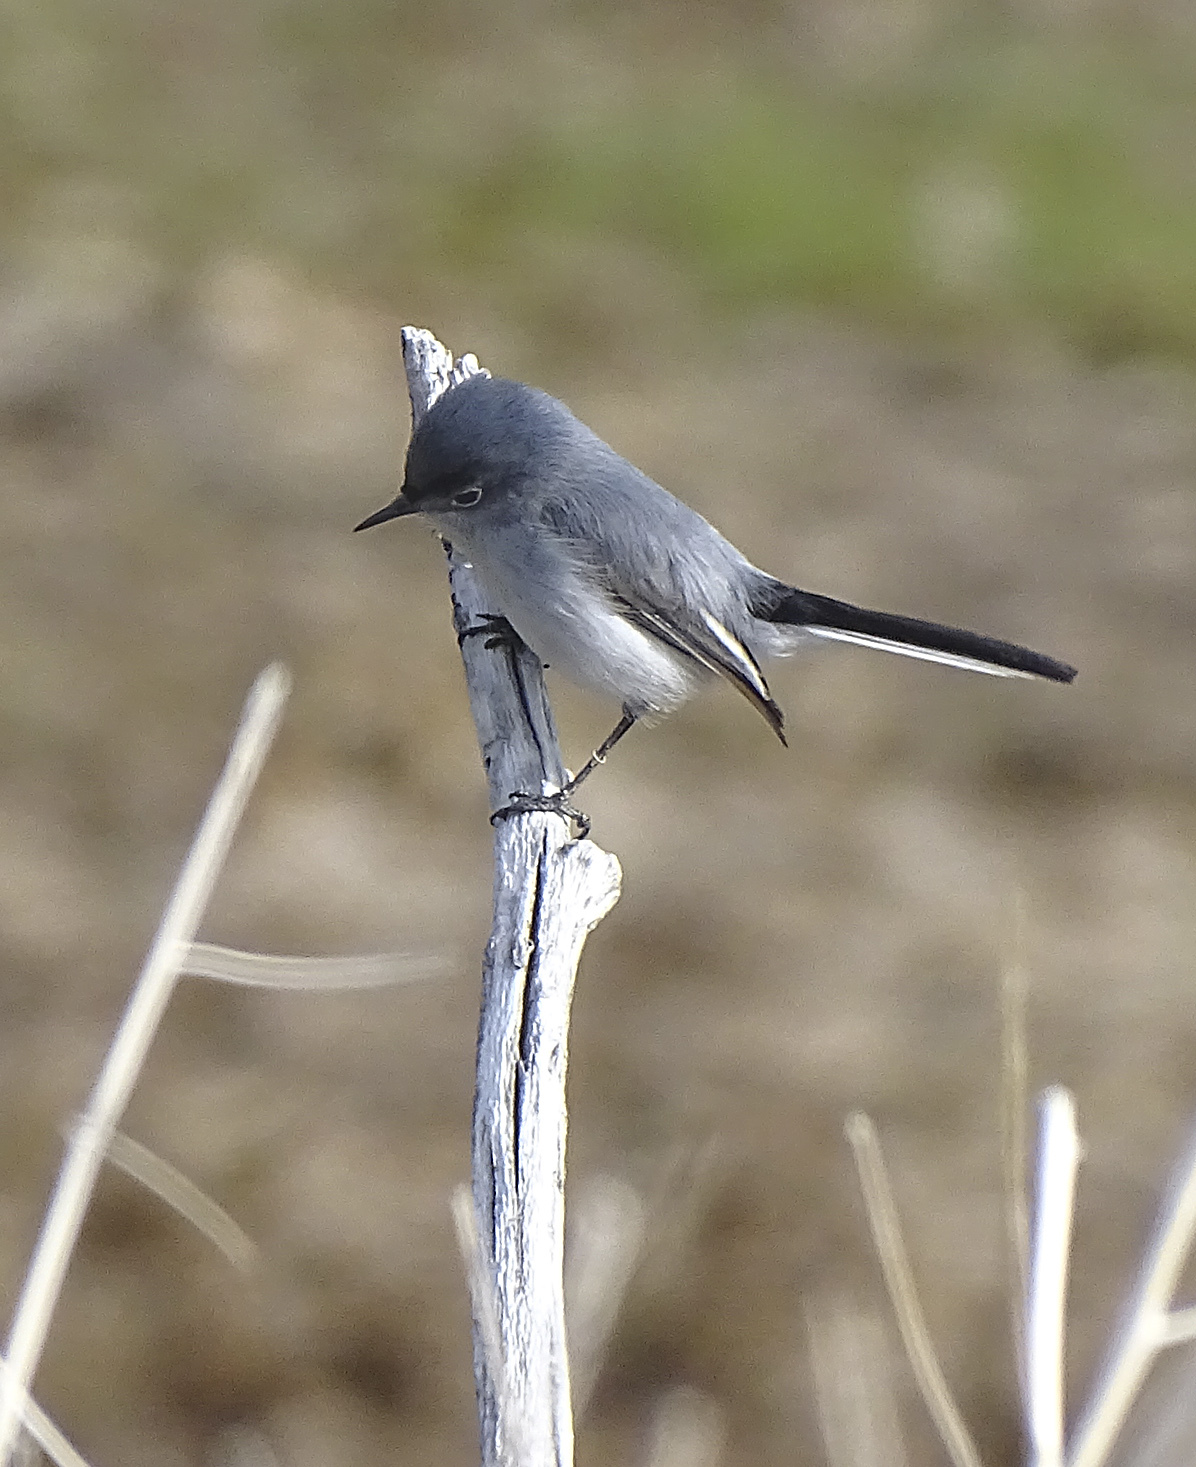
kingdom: Animalia
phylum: Chordata
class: Aves
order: Passeriformes
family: Polioptilidae
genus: Polioptila
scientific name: Polioptila caerulea
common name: Blue-gray gnatcatcher
